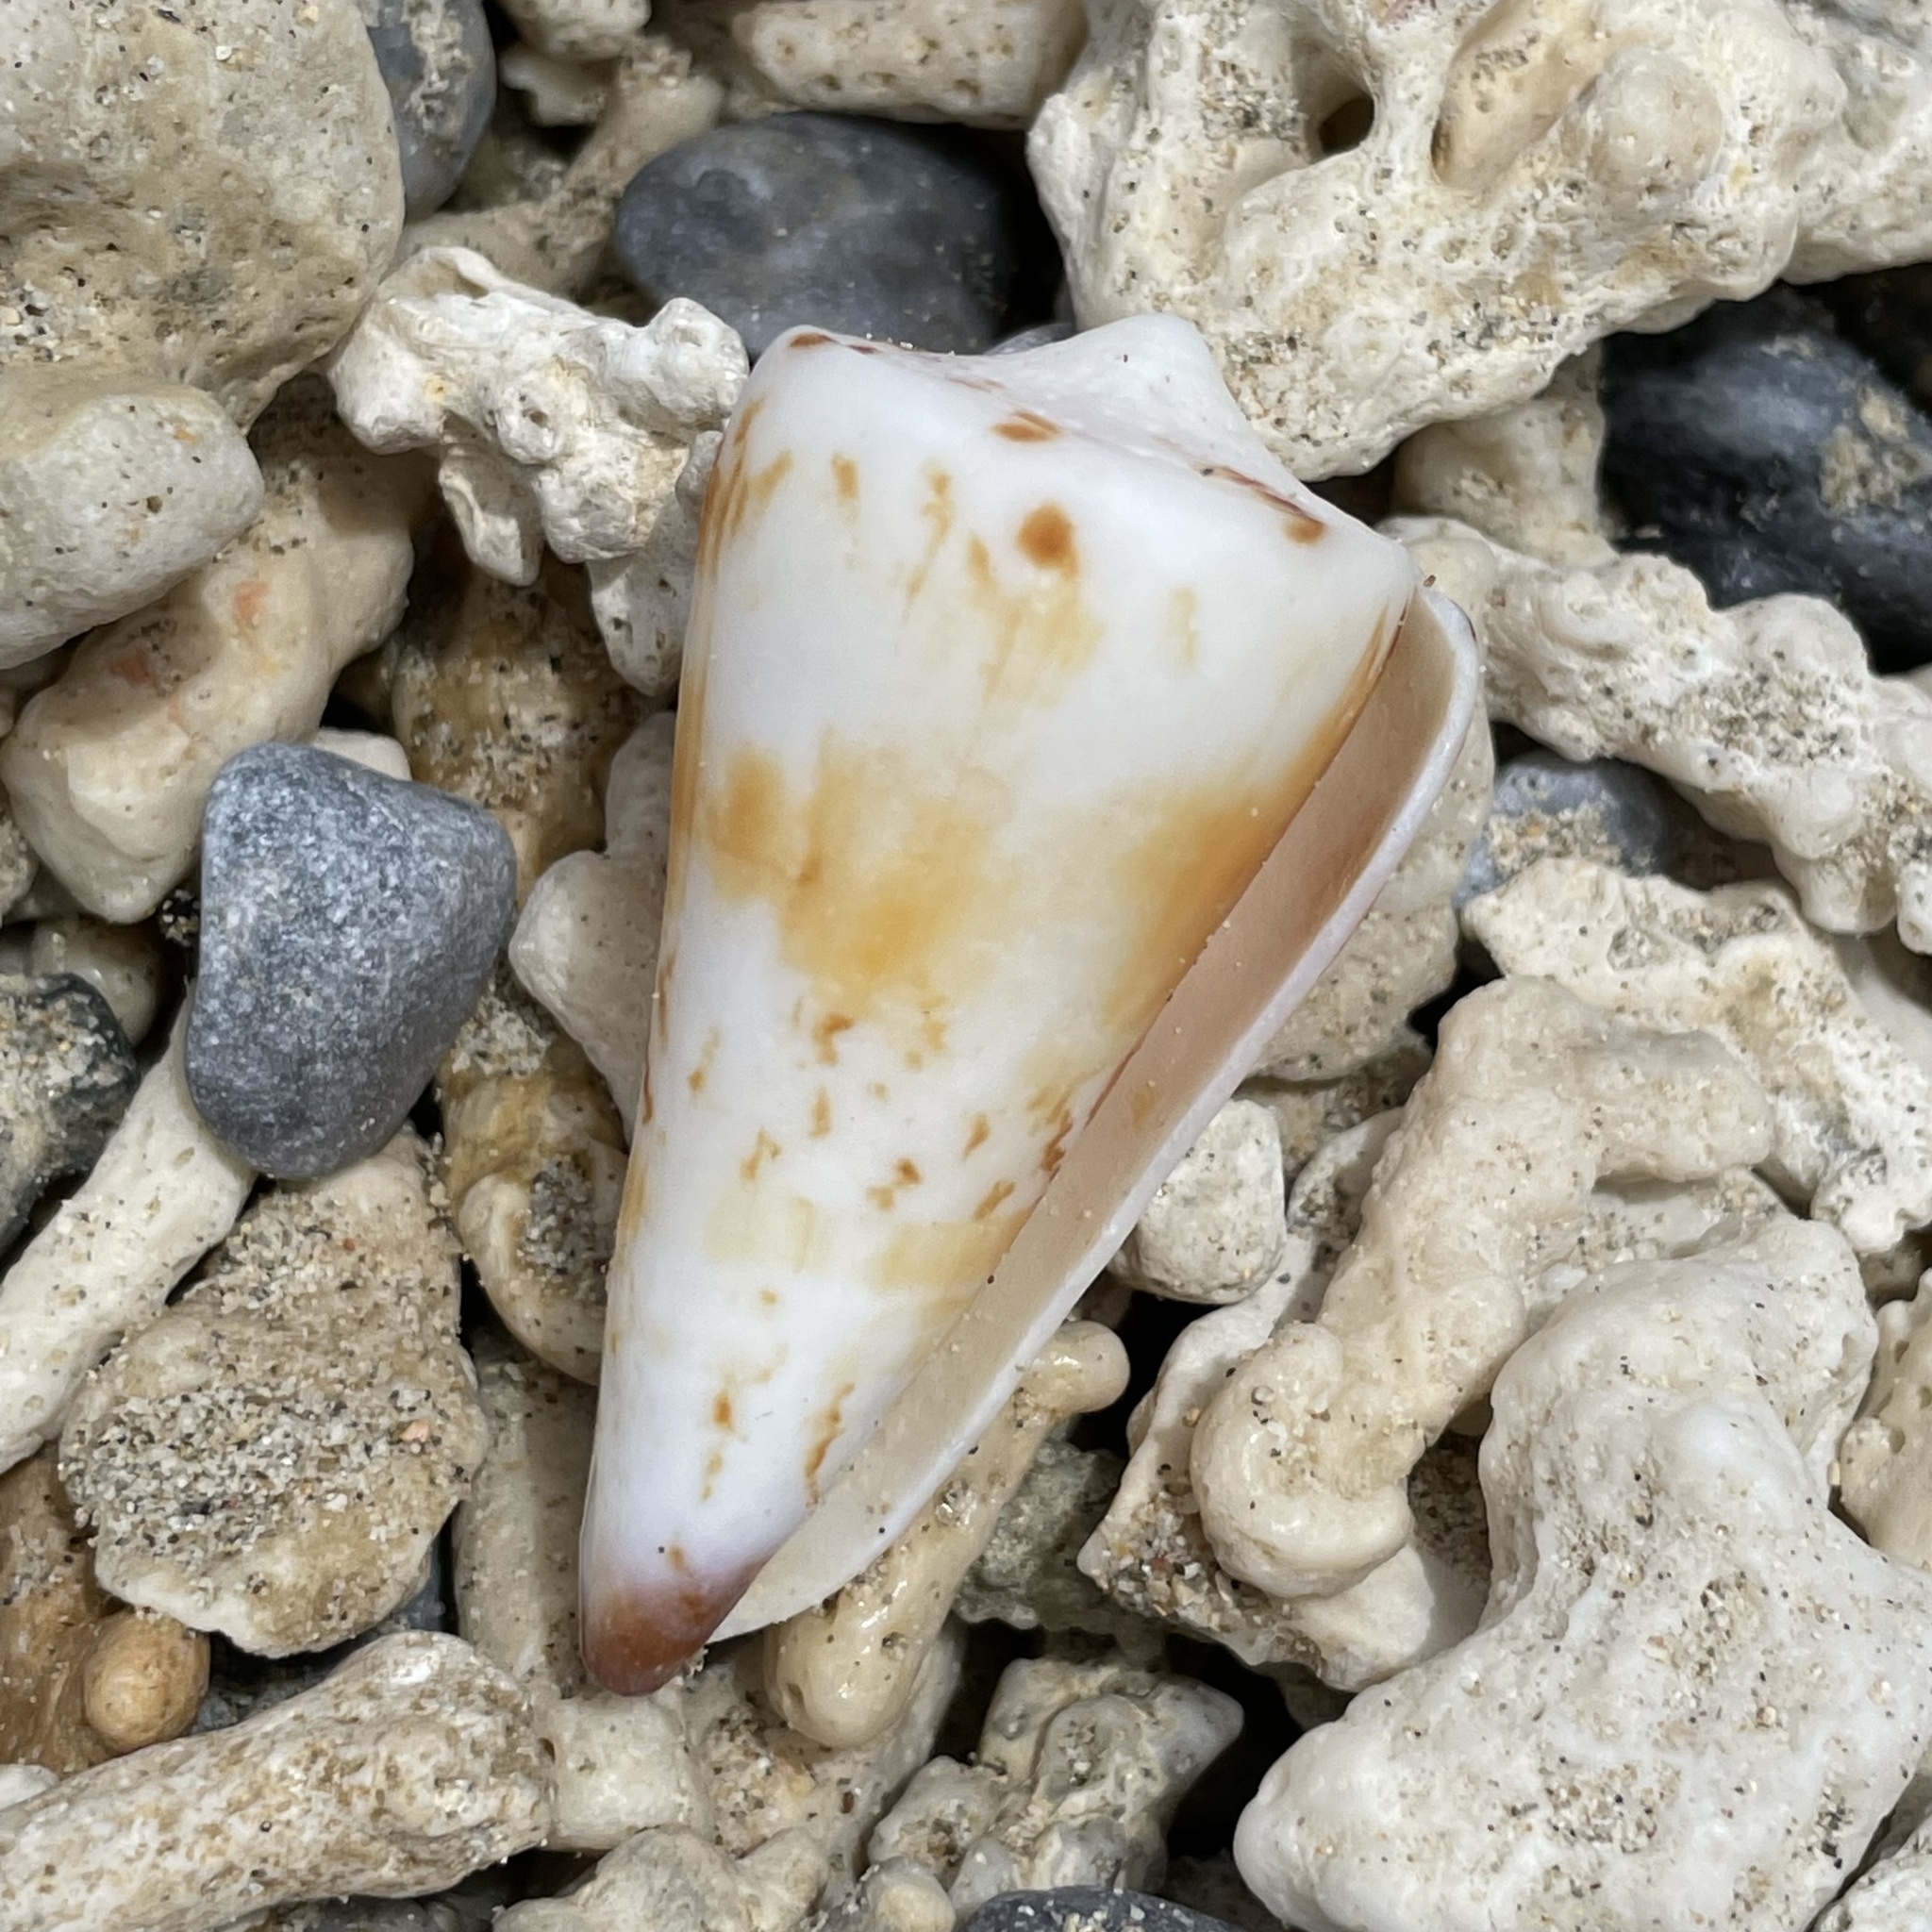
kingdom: Animalia
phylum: Mollusca
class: Gastropoda
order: Neogastropoda
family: Conidae
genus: Conus
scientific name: Conus generalis
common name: General cone
